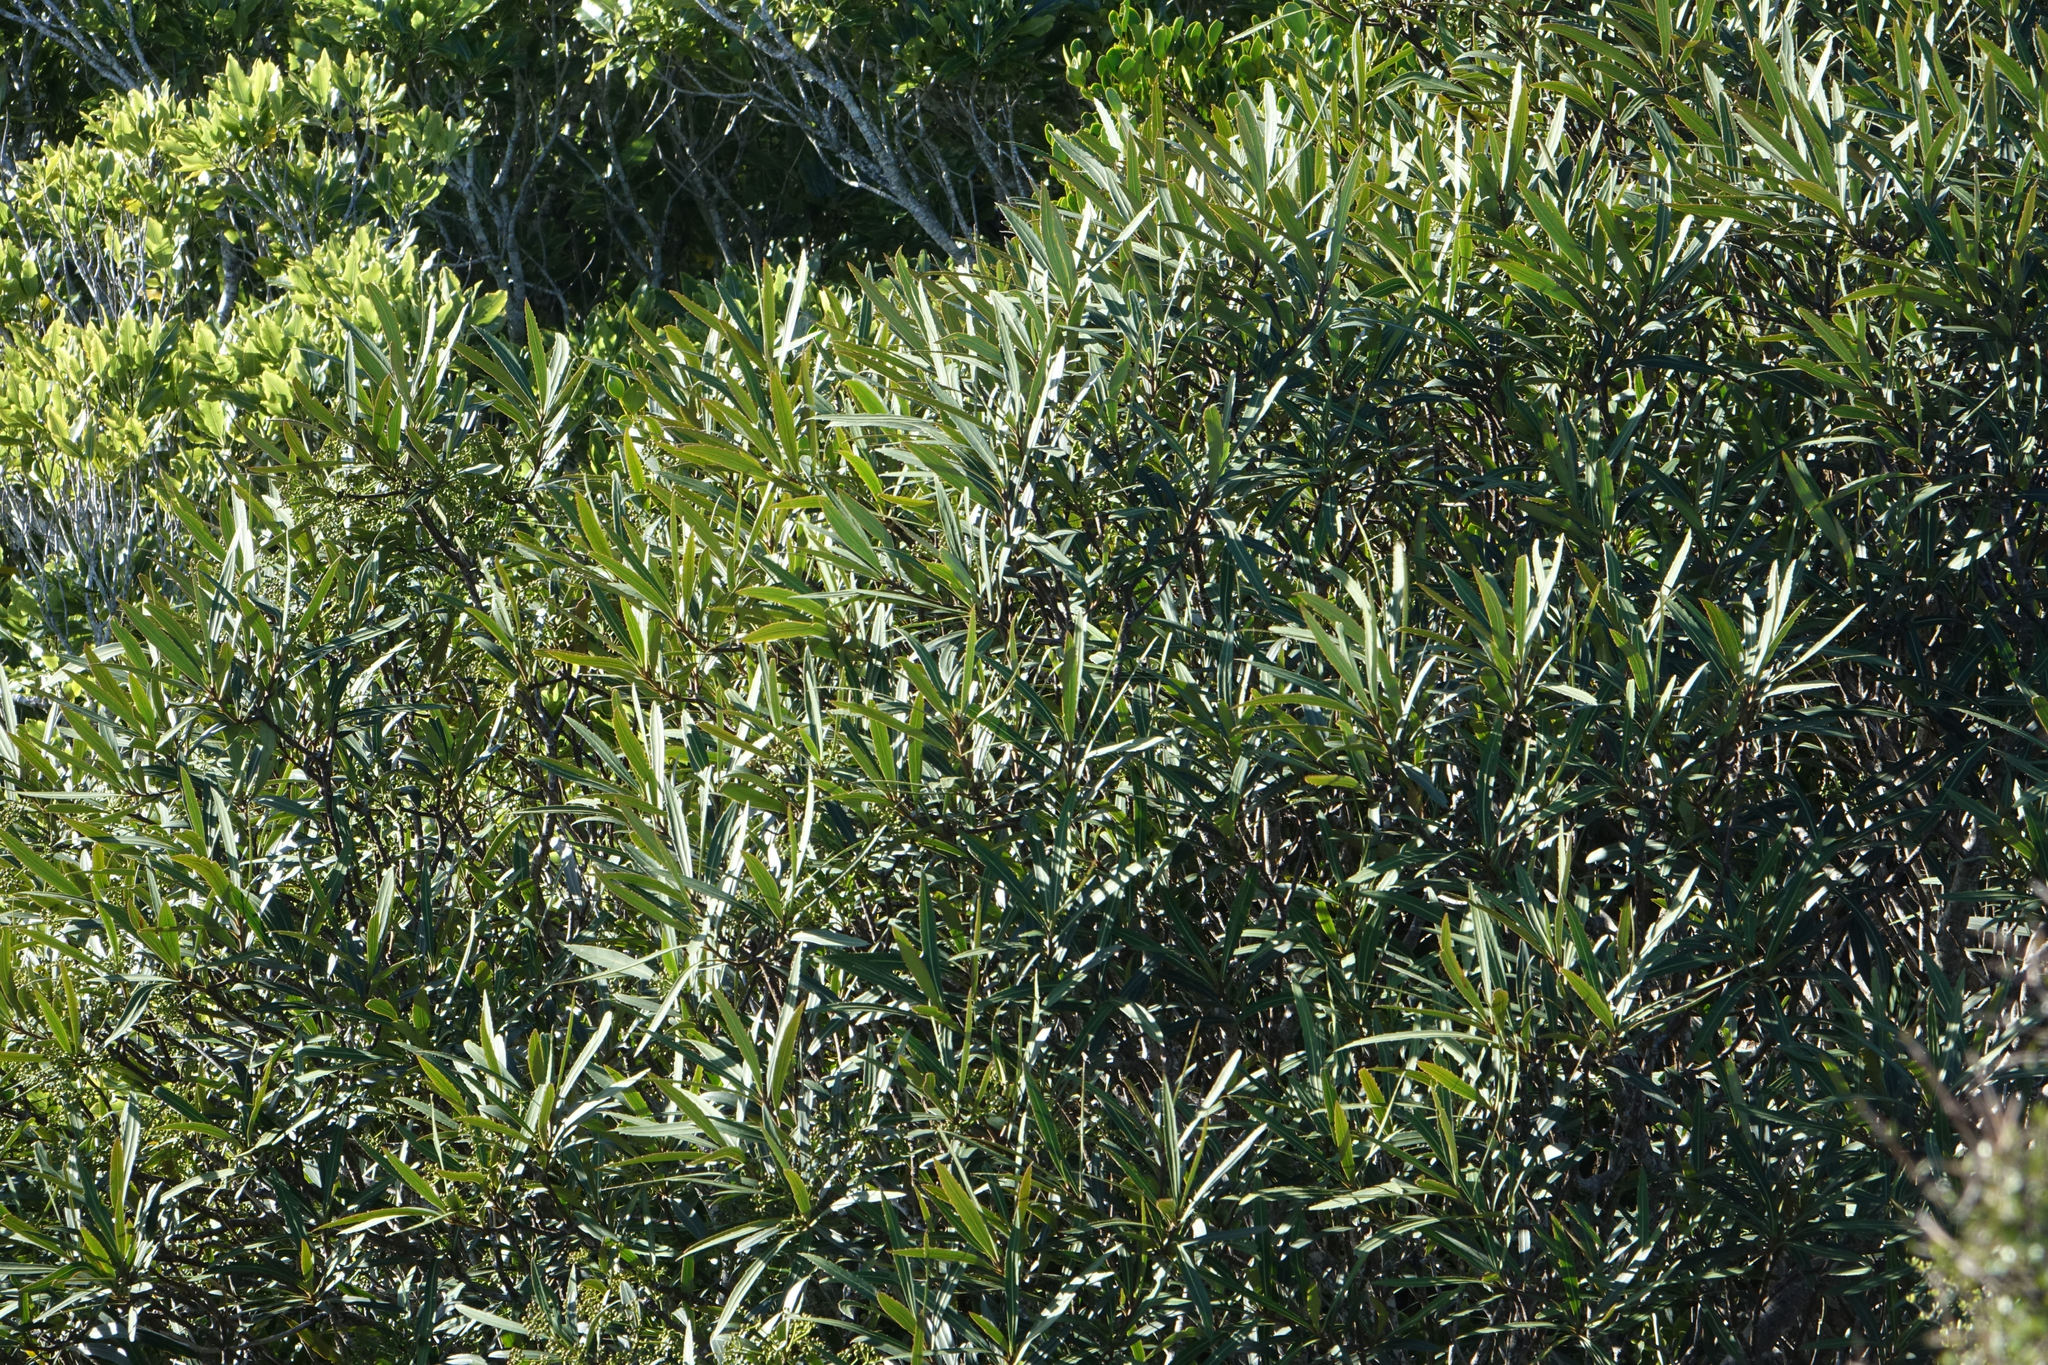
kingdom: Plantae
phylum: Tracheophyta
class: Magnoliopsida
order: Apiales
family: Araliaceae
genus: Pseudopanax
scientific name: Pseudopanax crassifolius
